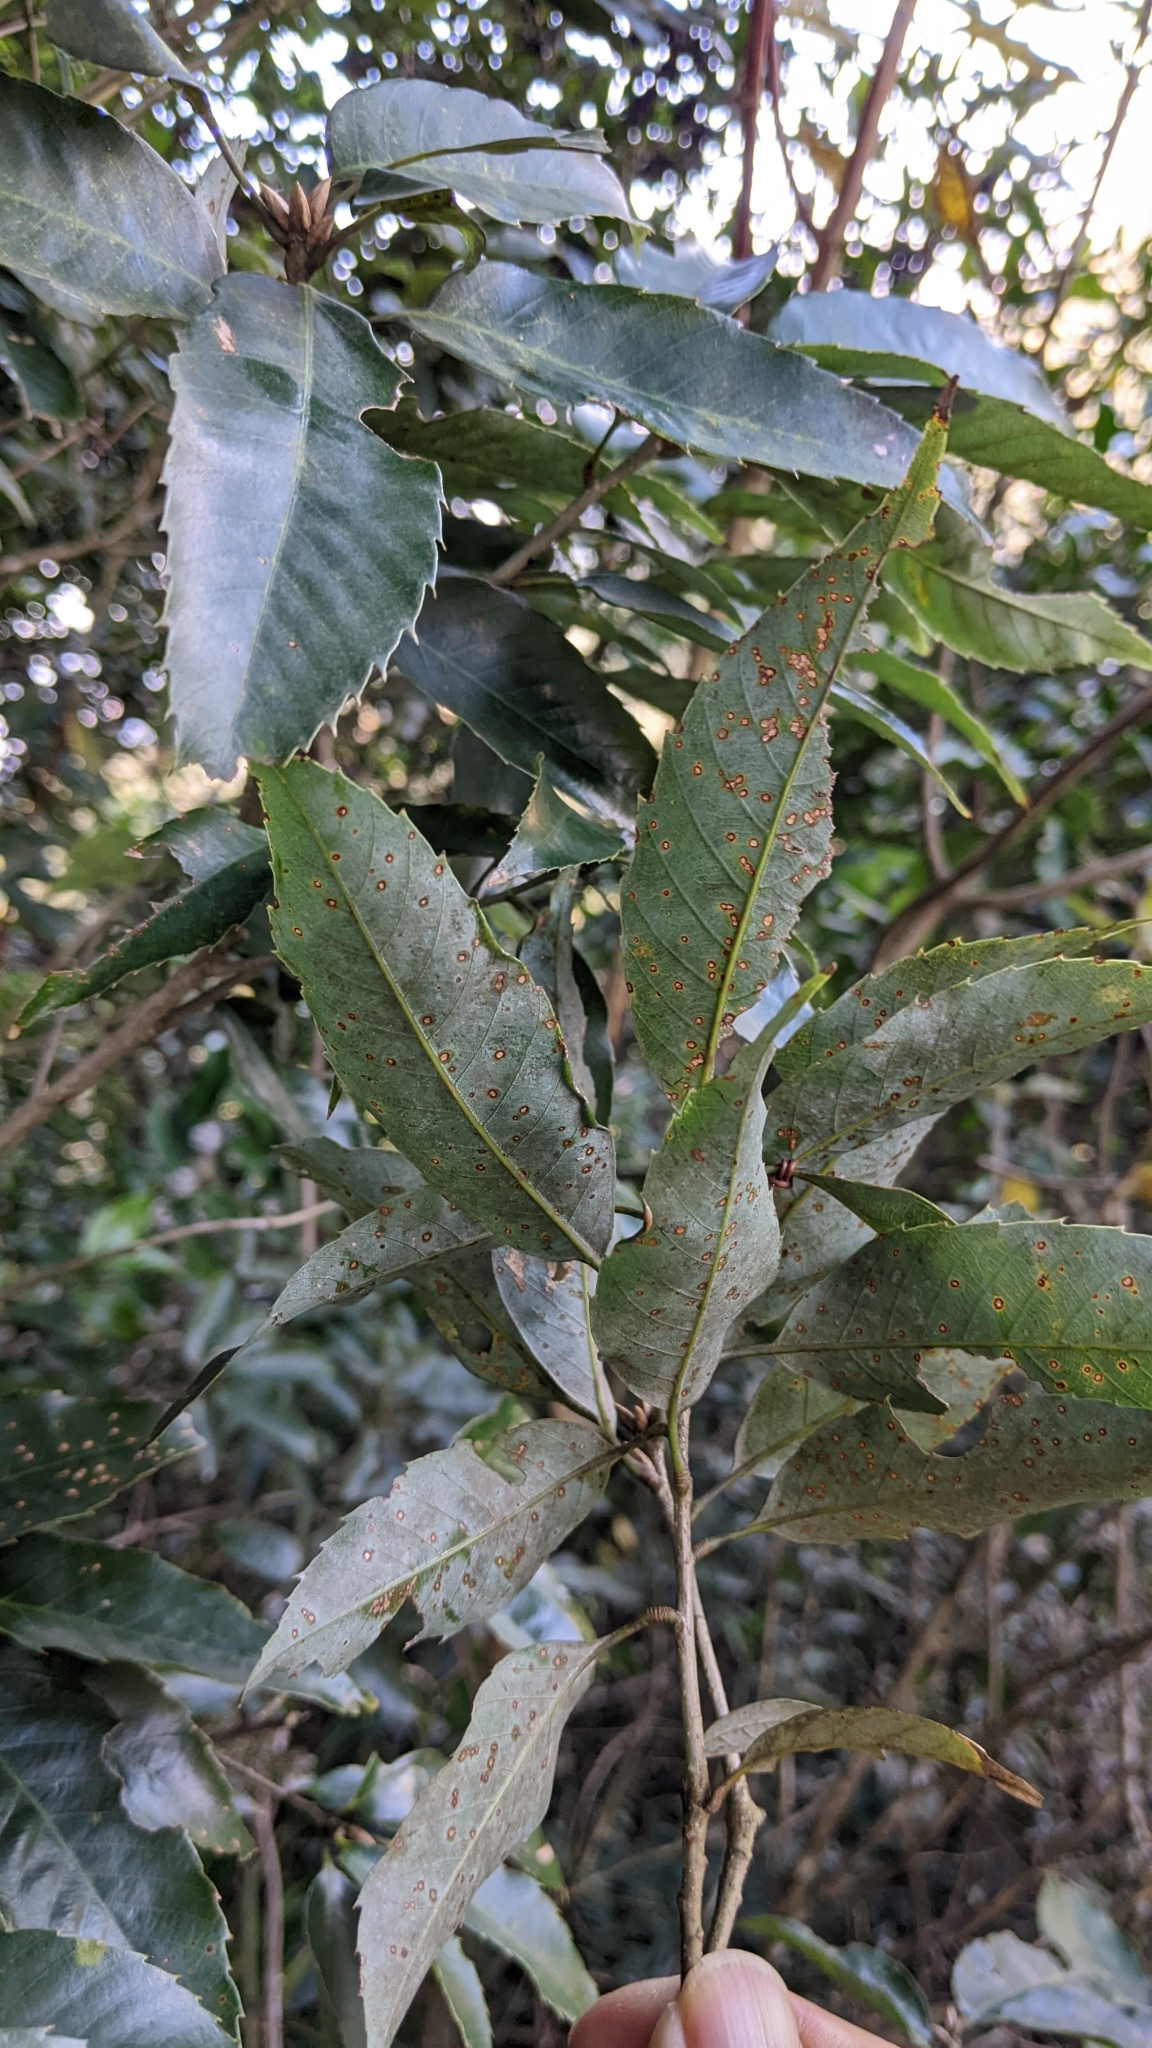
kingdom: Plantae
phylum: Tracheophyta
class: Magnoliopsida
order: Fagales
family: Fagaceae
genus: Quercus
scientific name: Quercus stenophylloides
